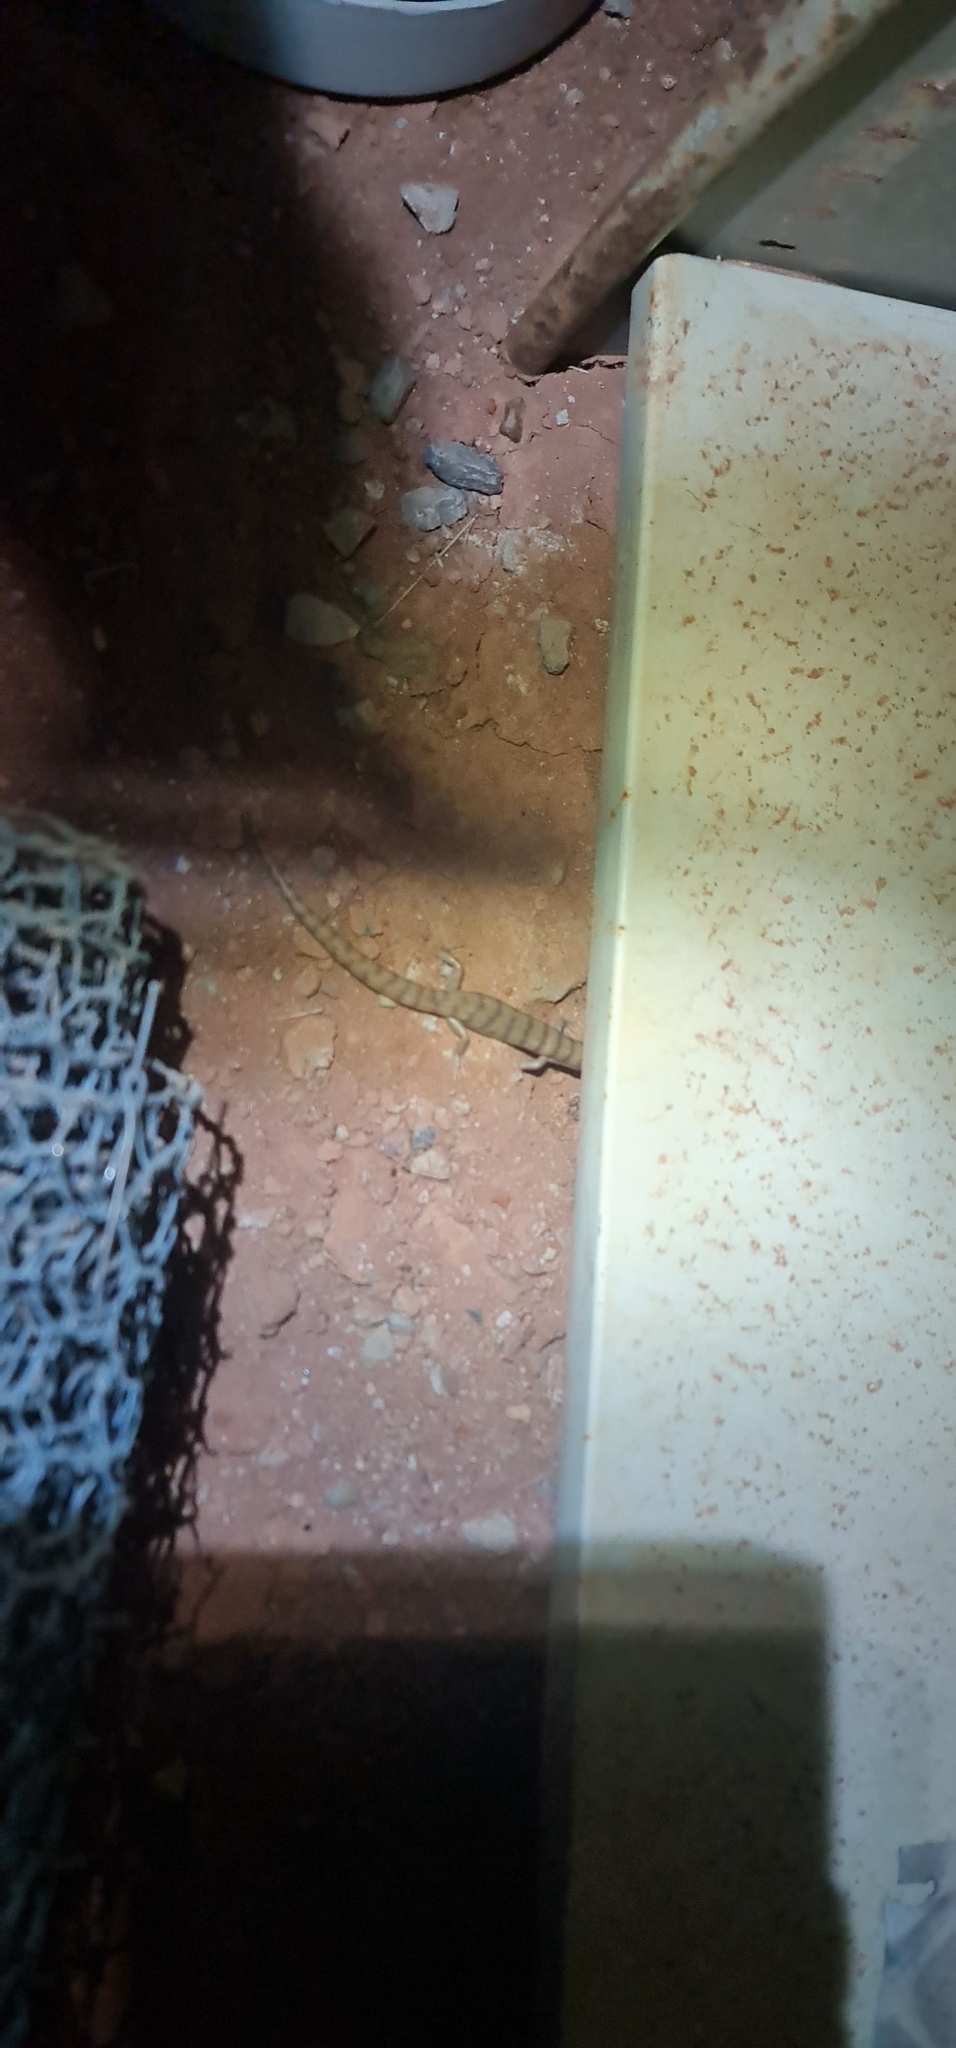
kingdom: Animalia
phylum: Chordata
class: Squamata
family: Scincidae
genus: Eremiascincus
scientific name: Eremiascincus richardsonii
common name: Broad banded sand swimmer
